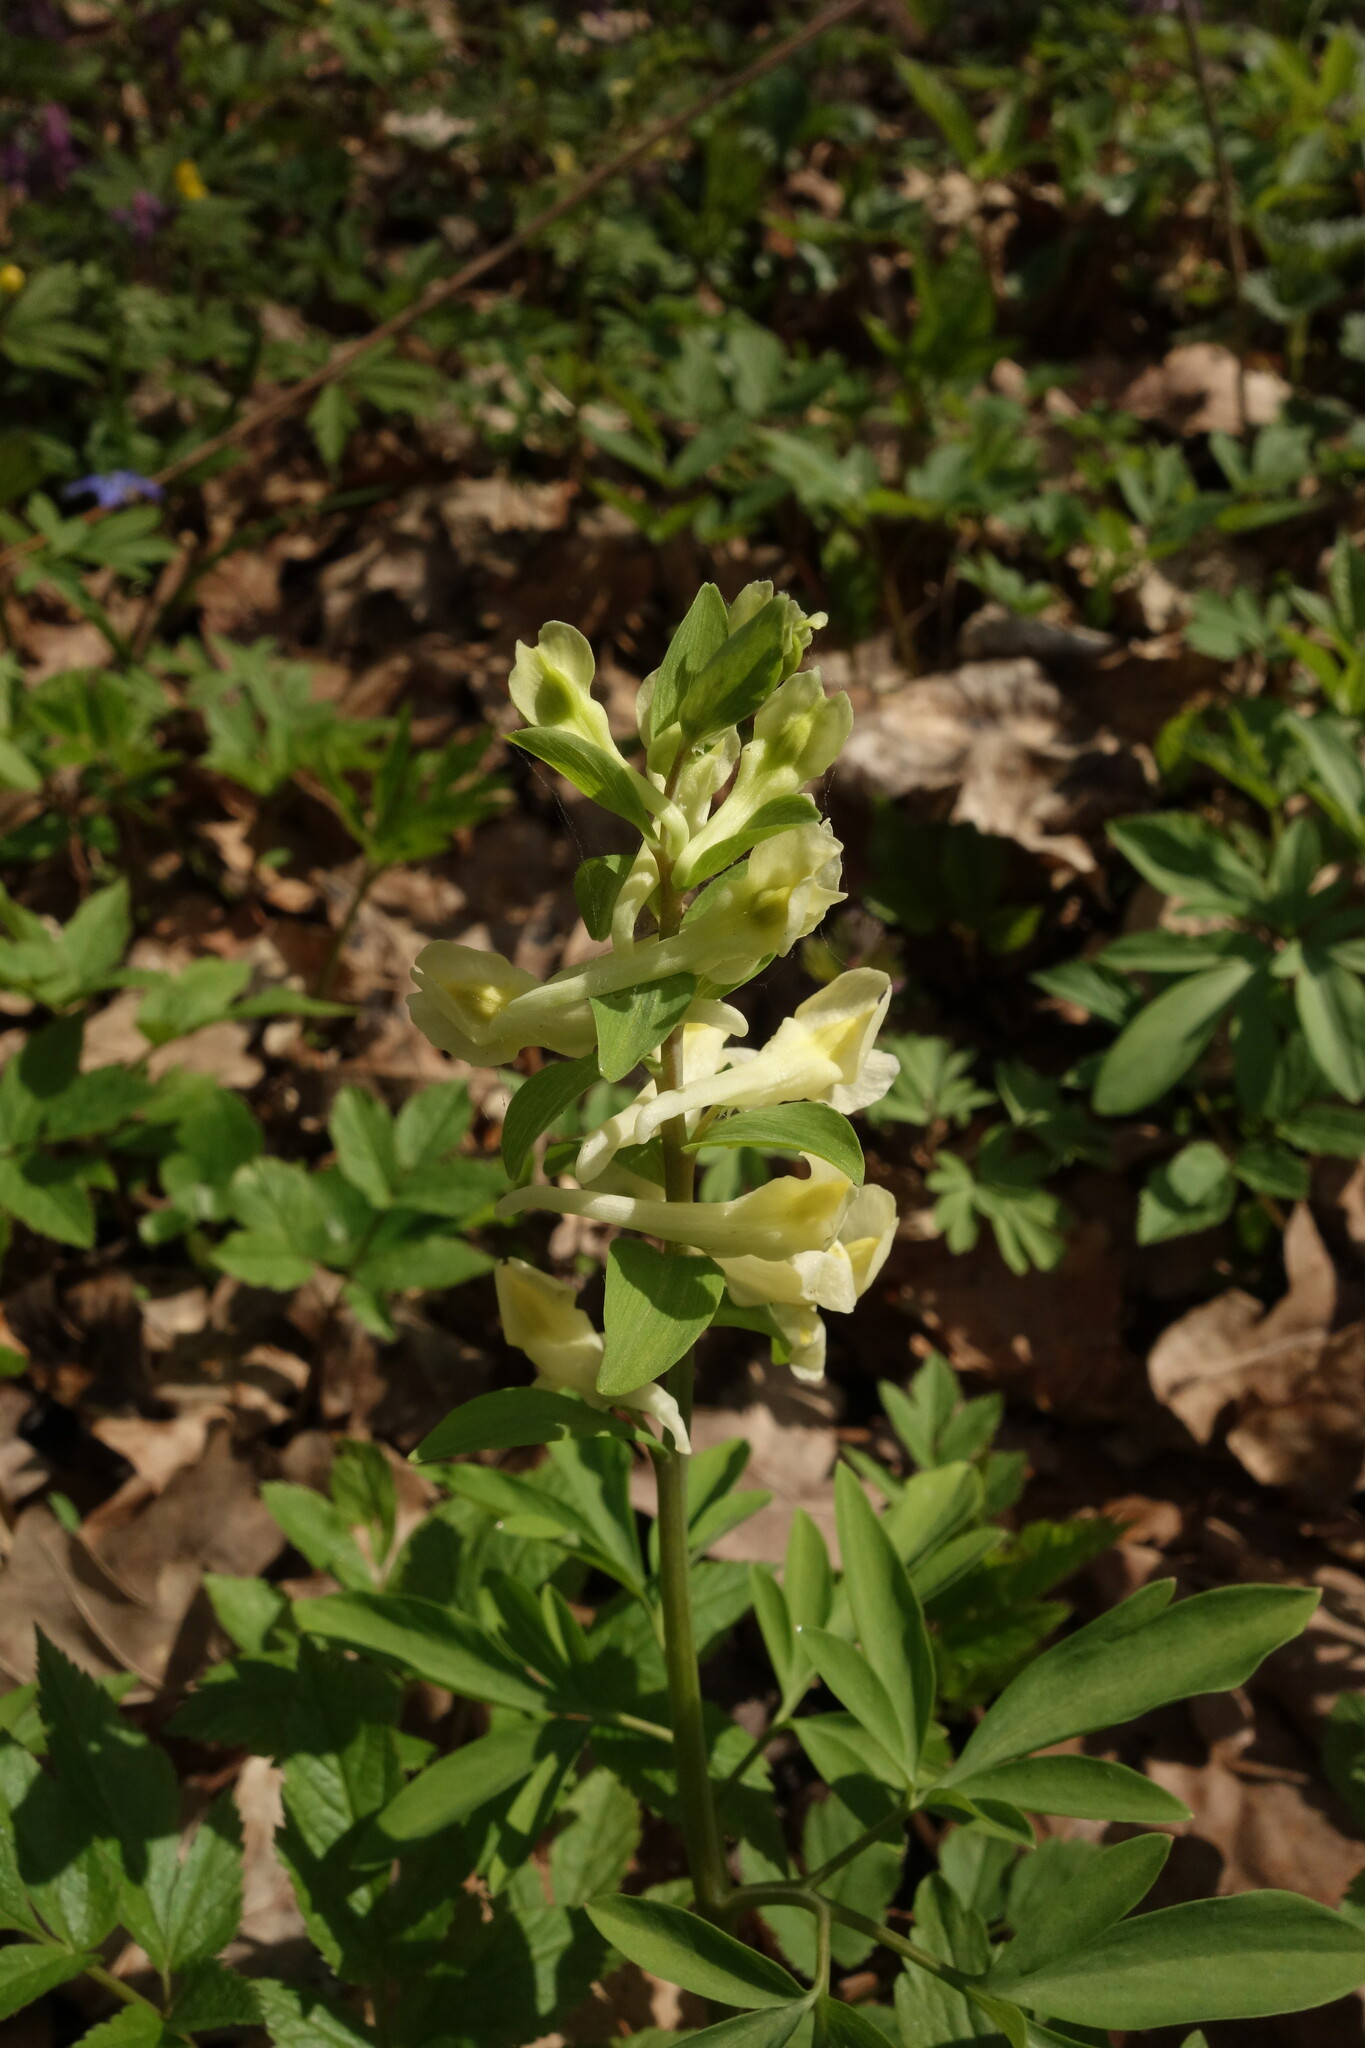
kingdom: Plantae
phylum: Tracheophyta
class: Magnoliopsida
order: Ranunculales
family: Papaveraceae
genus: Corydalis
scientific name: Corydalis cava
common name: Hollowroot
